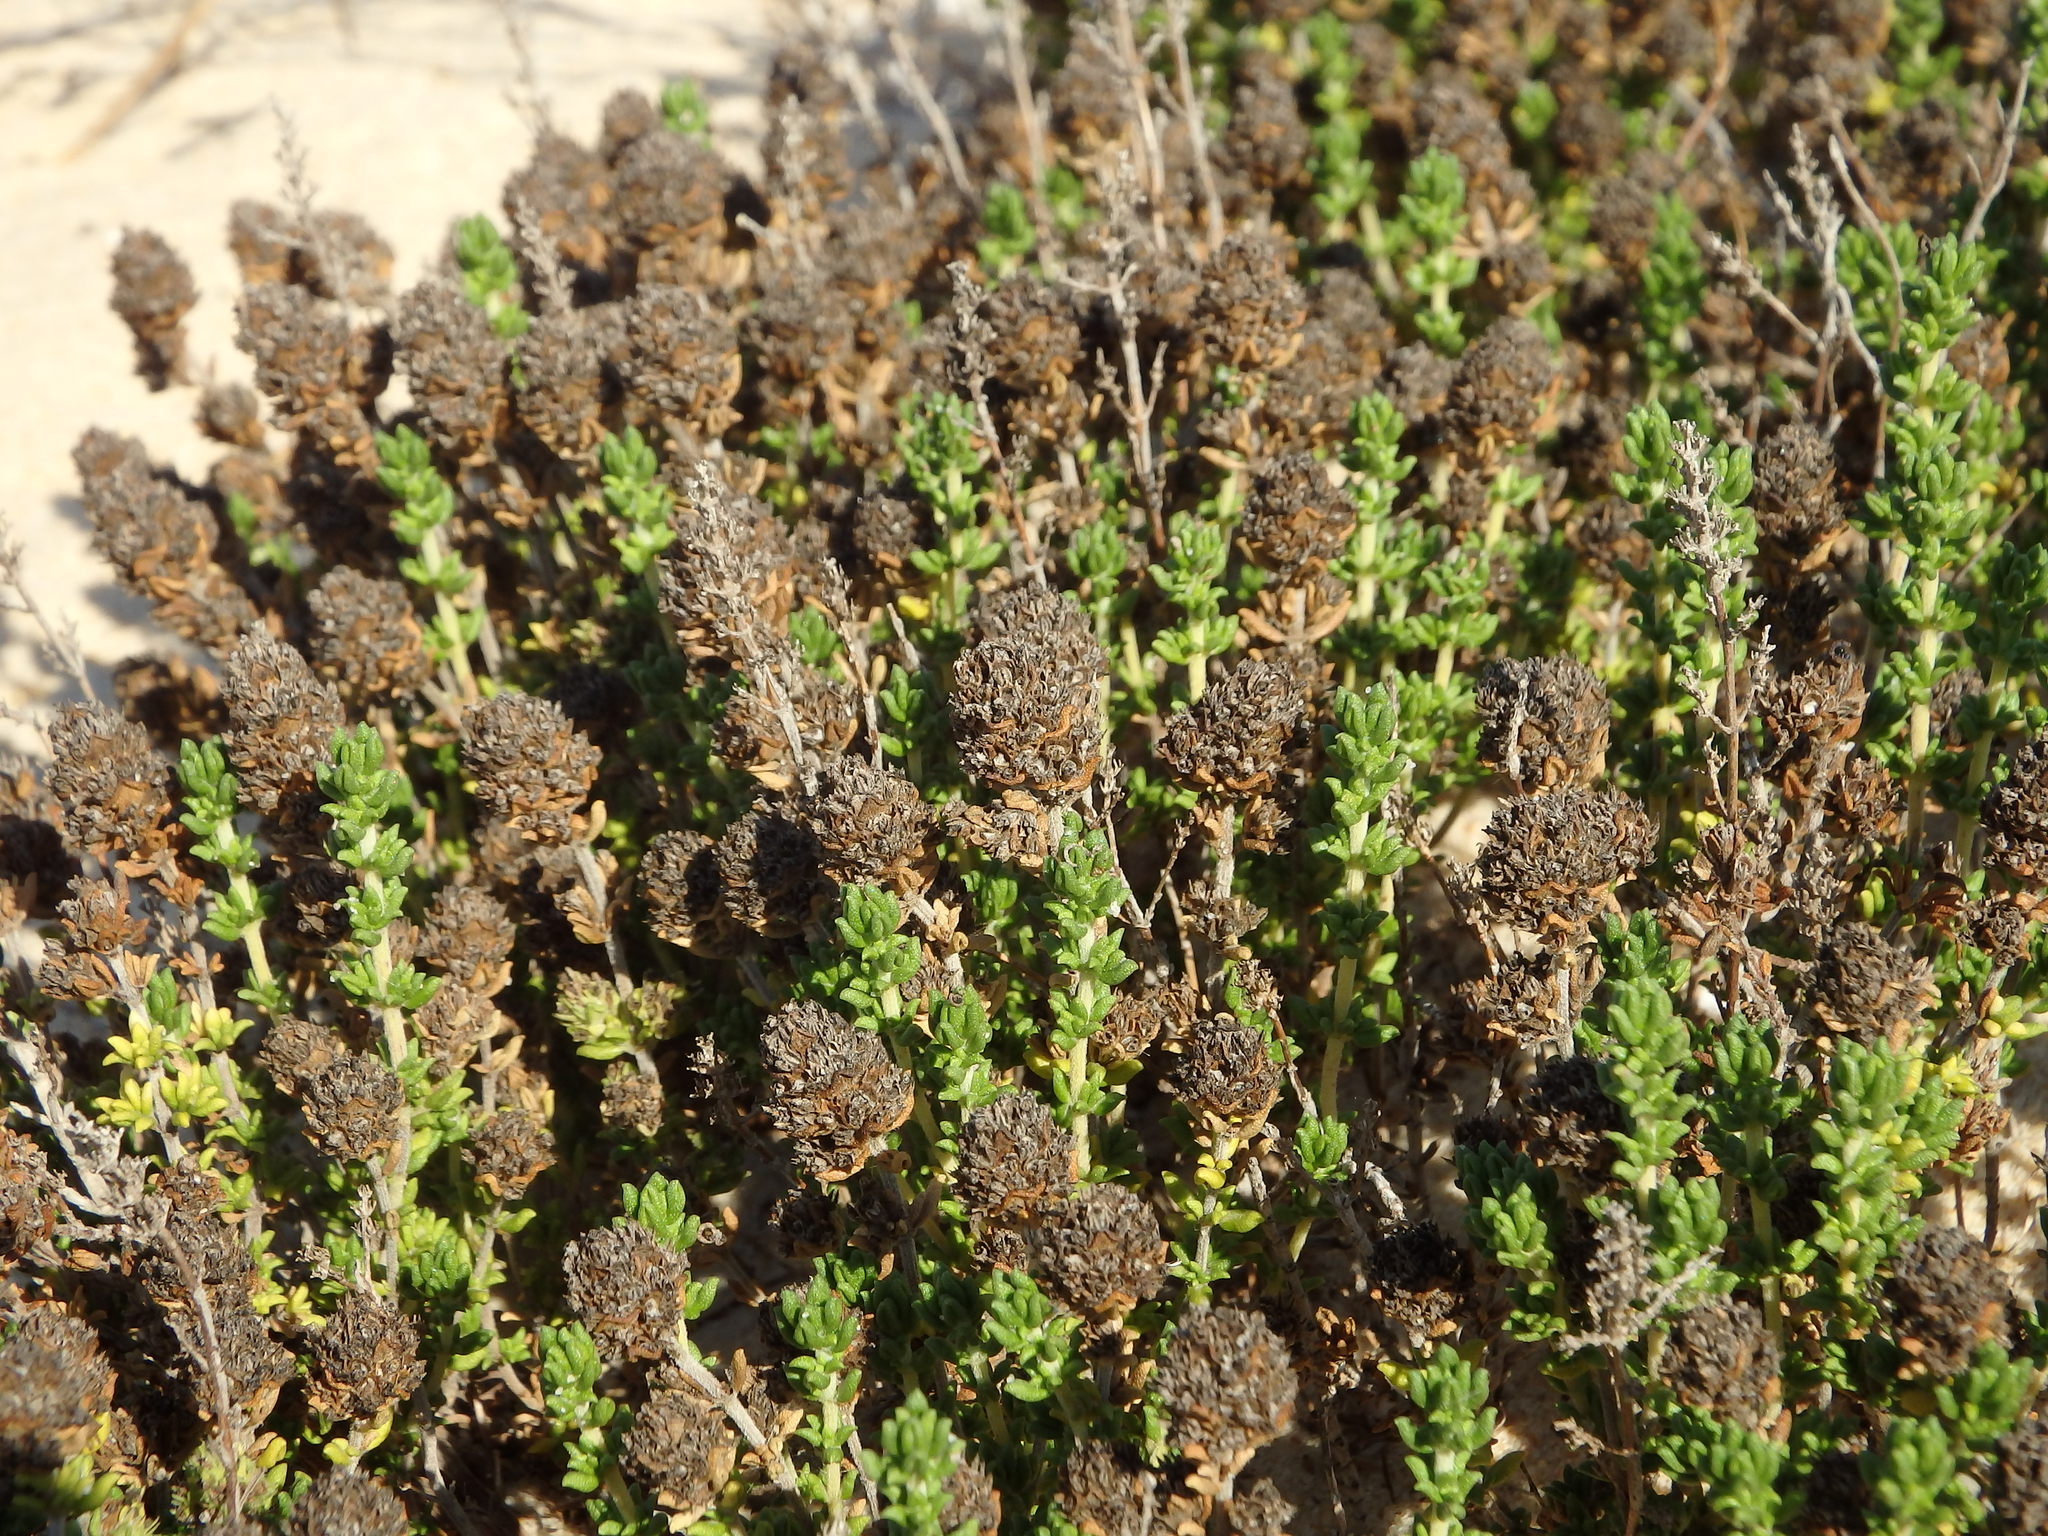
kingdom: Plantae
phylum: Tracheophyta
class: Magnoliopsida
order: Lamiales
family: Lamiaceae
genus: Thymus
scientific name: Thymus carnosus
